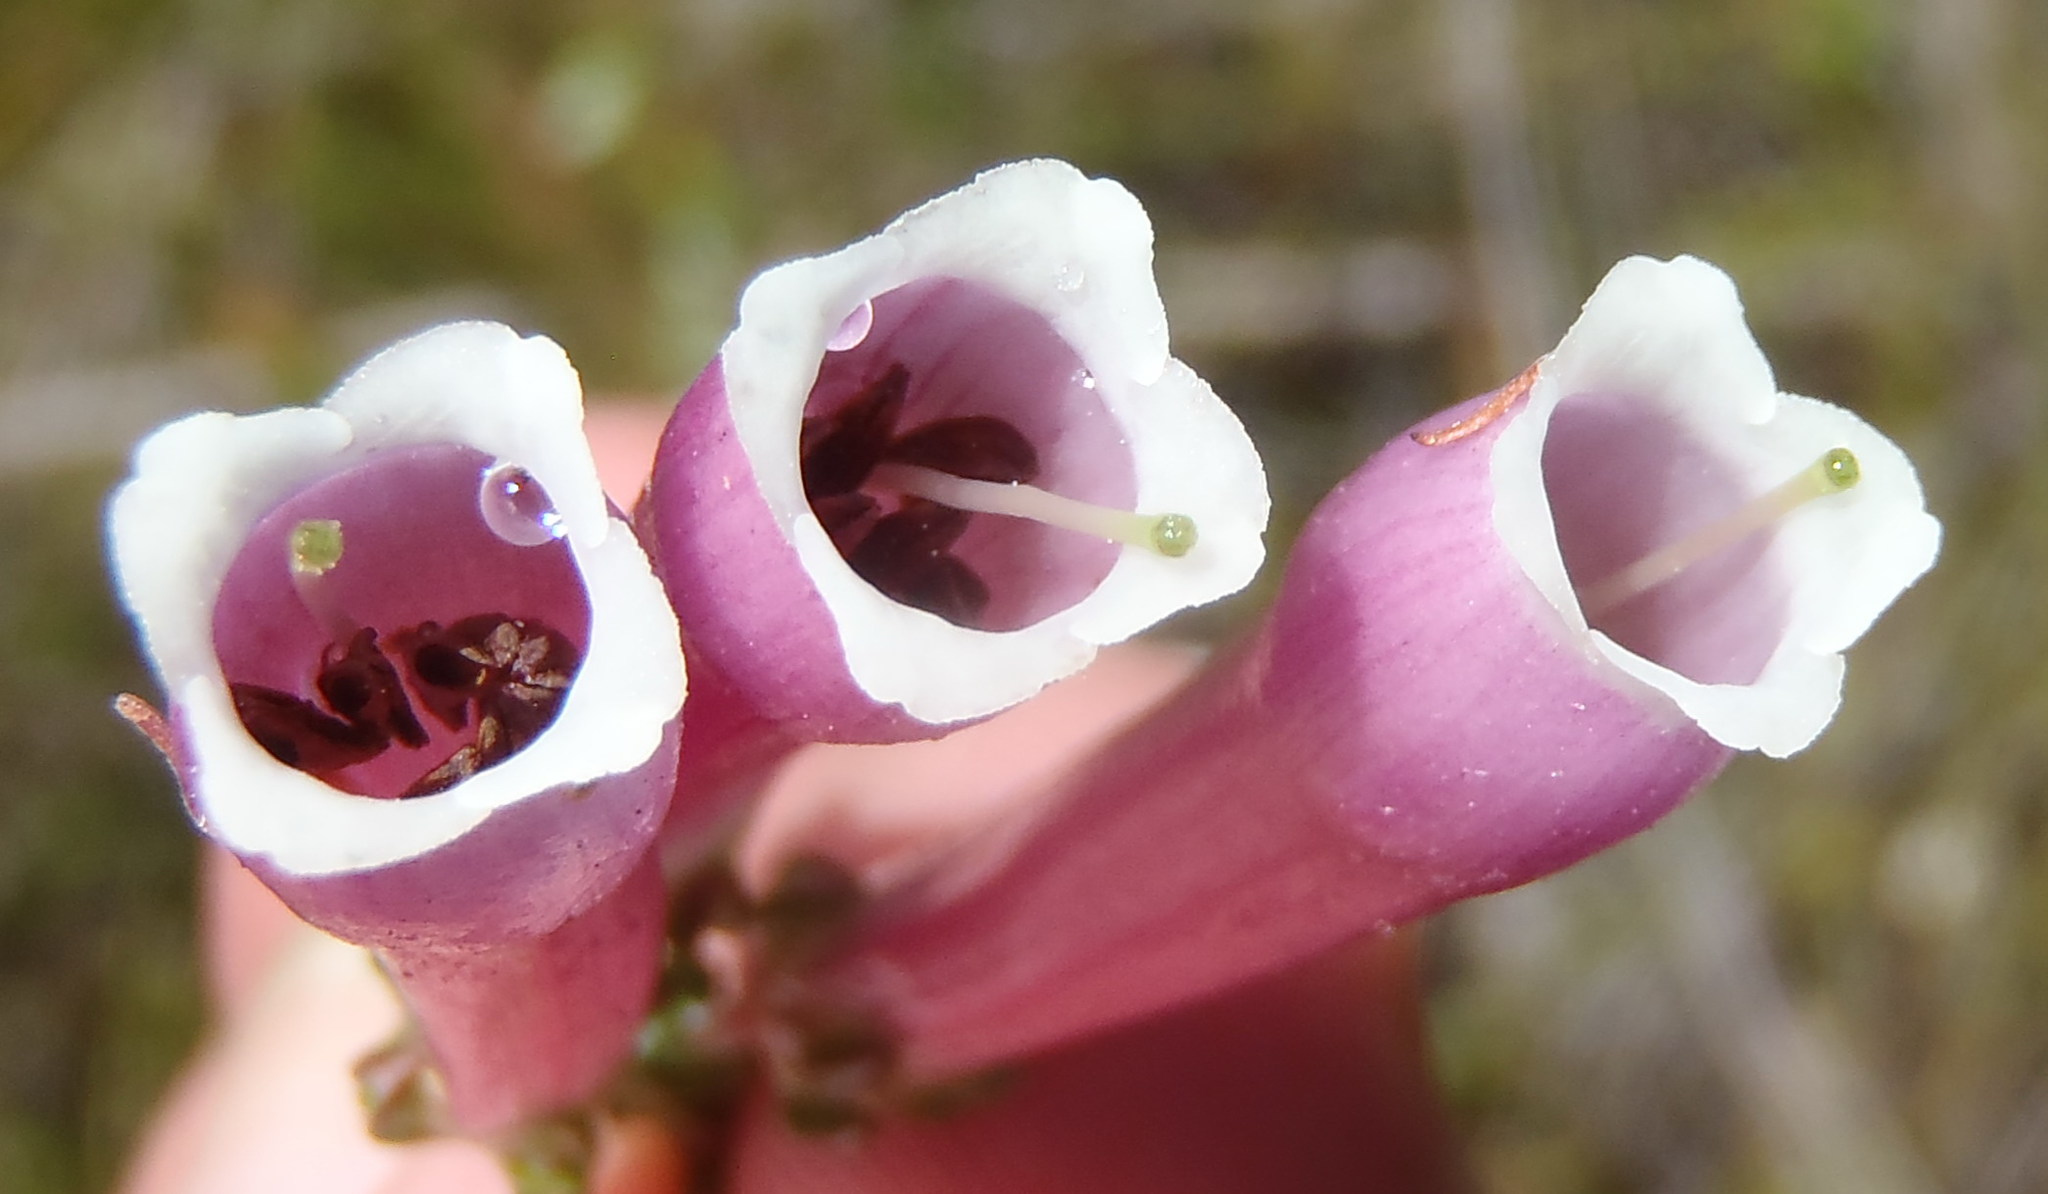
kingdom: Plantae
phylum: Tracheophyta
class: Magnoliopsida
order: Ericales
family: Ericaceae
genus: Erica
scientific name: Erica diaphana
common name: Heath
